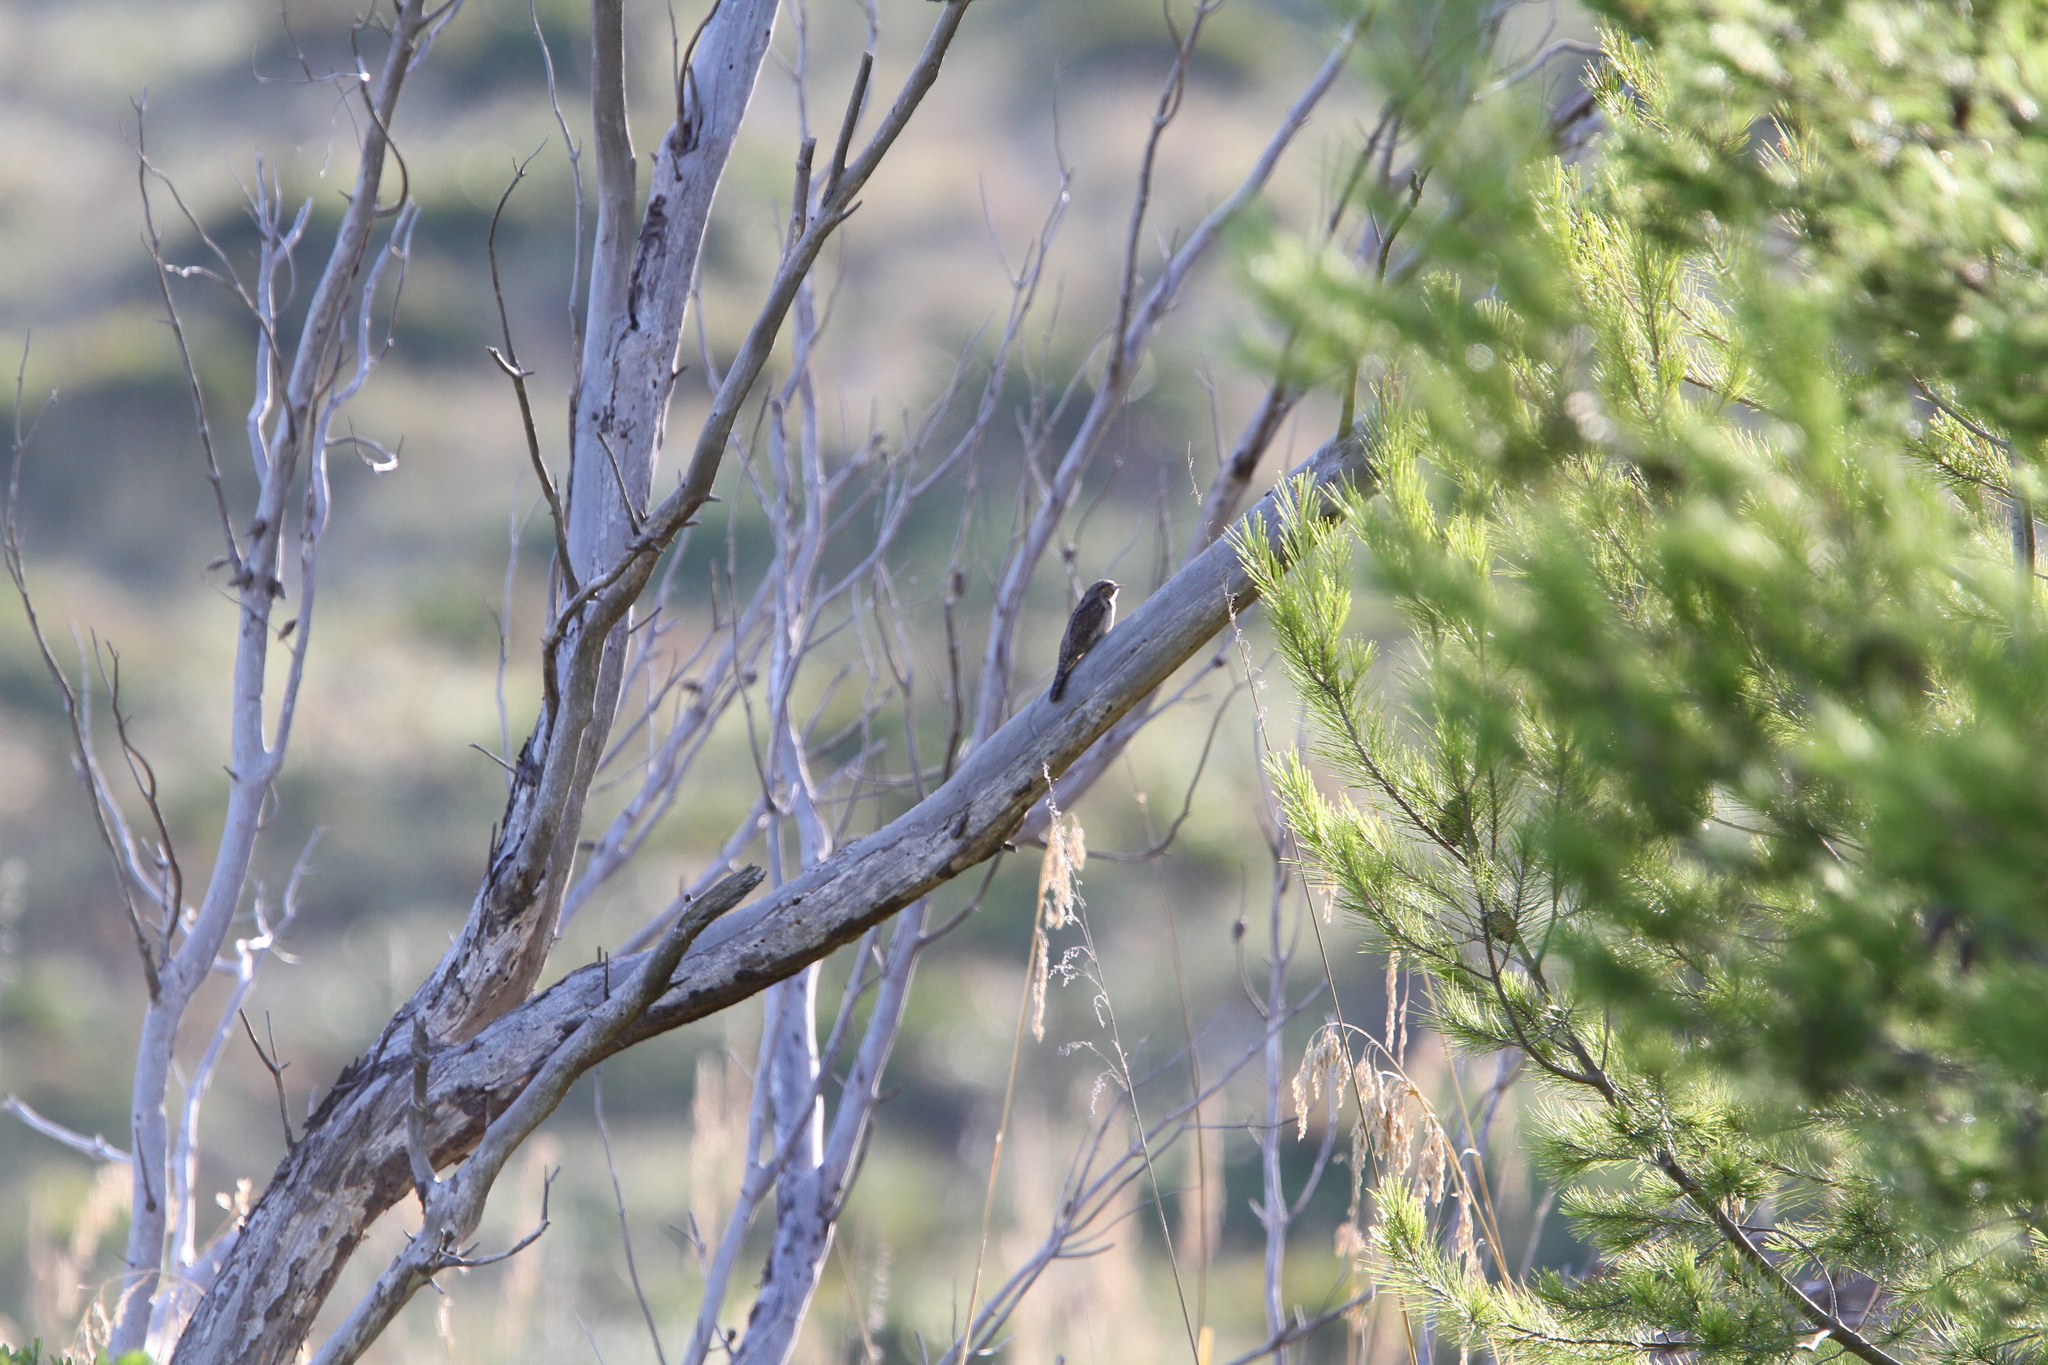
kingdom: Animalia
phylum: Chordata
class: Aves
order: Piciformes
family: Picidae
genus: Jynx
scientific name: Jynx torquilla
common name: Eurasian wryneck
